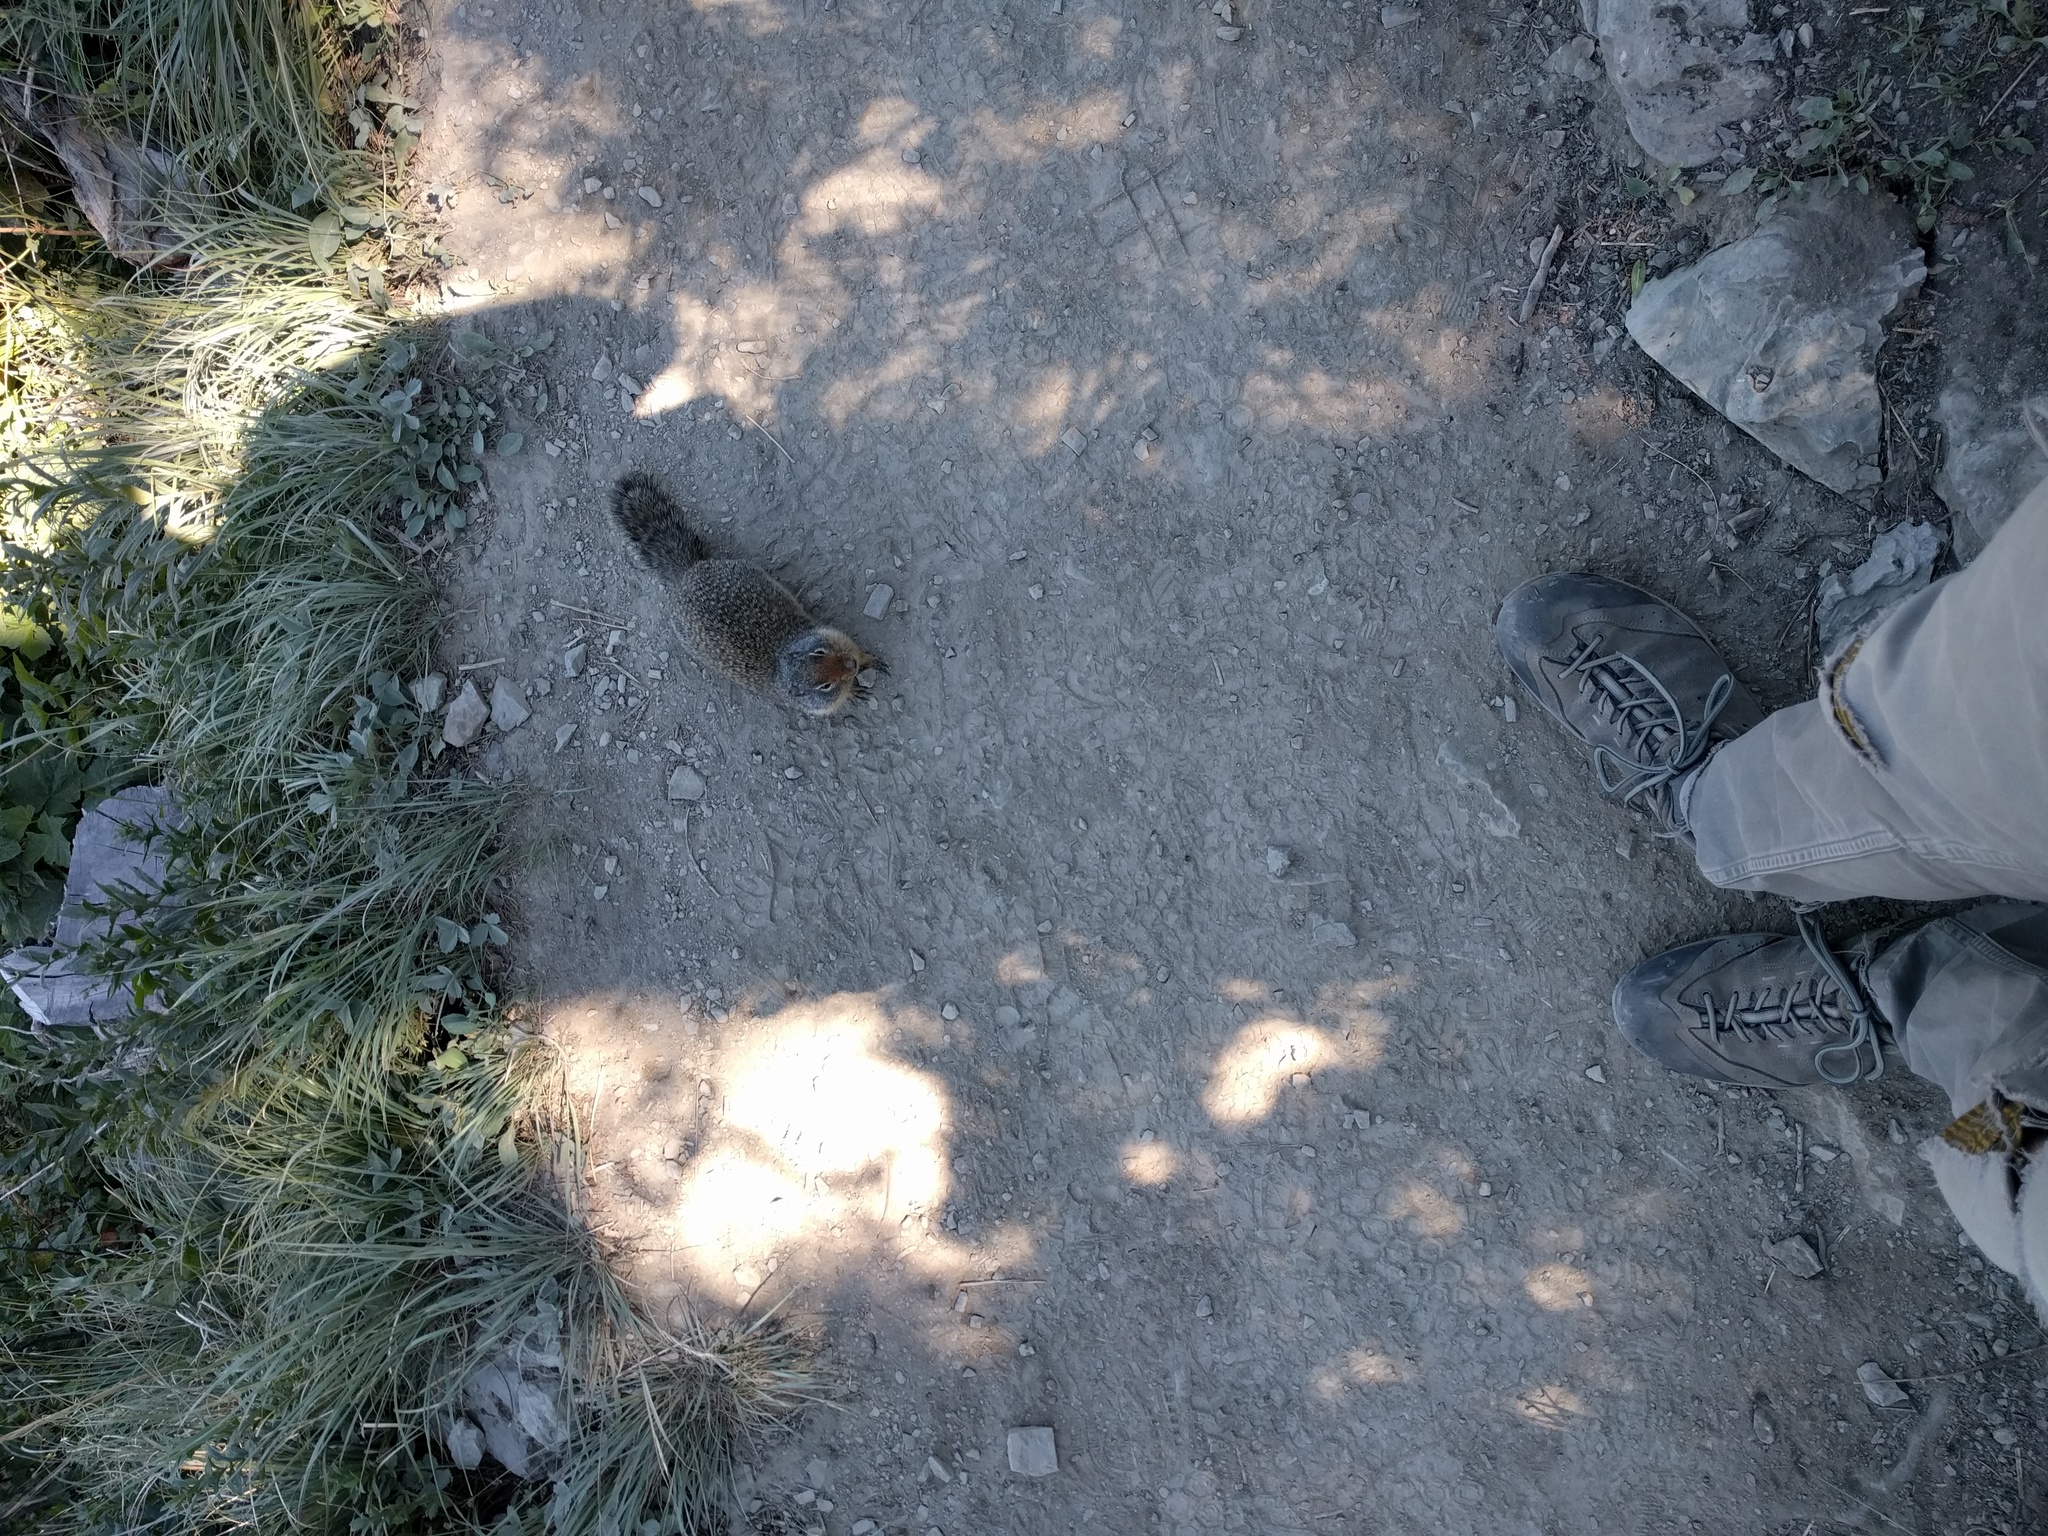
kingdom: Animalia
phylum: Chordata
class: Mammalia
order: Rodentia
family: Sciuridae
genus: Urocitellus
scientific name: Urocitellus columbianus
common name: Columbian ground squirrel
